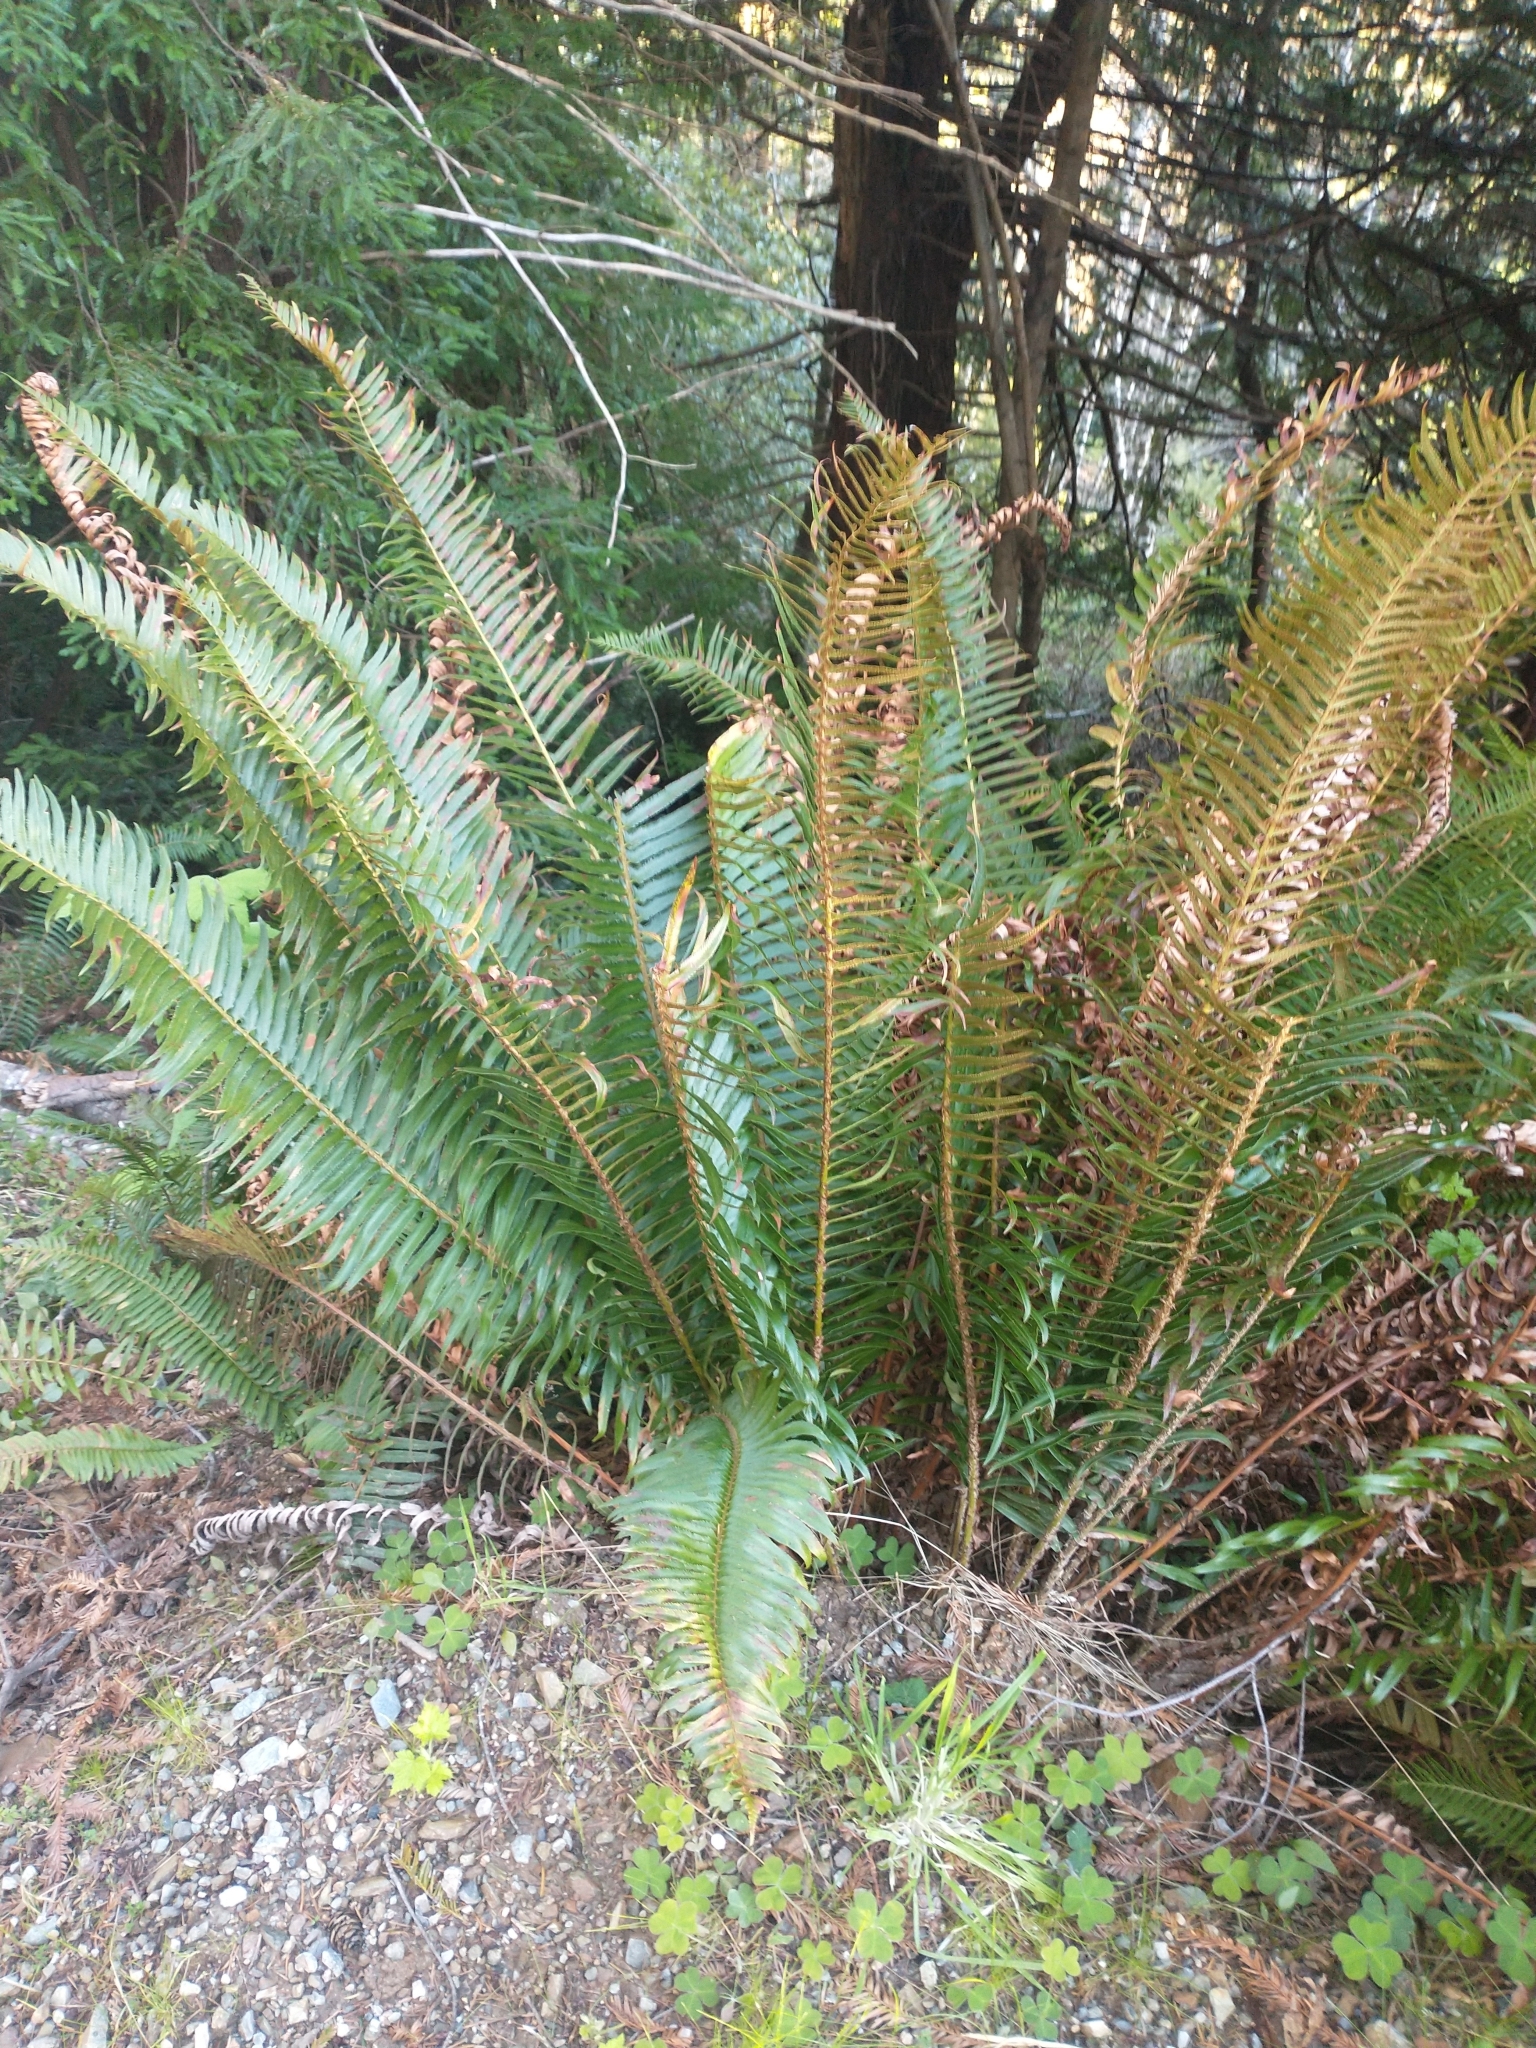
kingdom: Plantae
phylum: Tracheophyta
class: Polypodiopsida
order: Polypodiales
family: Dryopteridaceae
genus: Polystichum
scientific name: Polystichum munitum
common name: Western sword-fern
